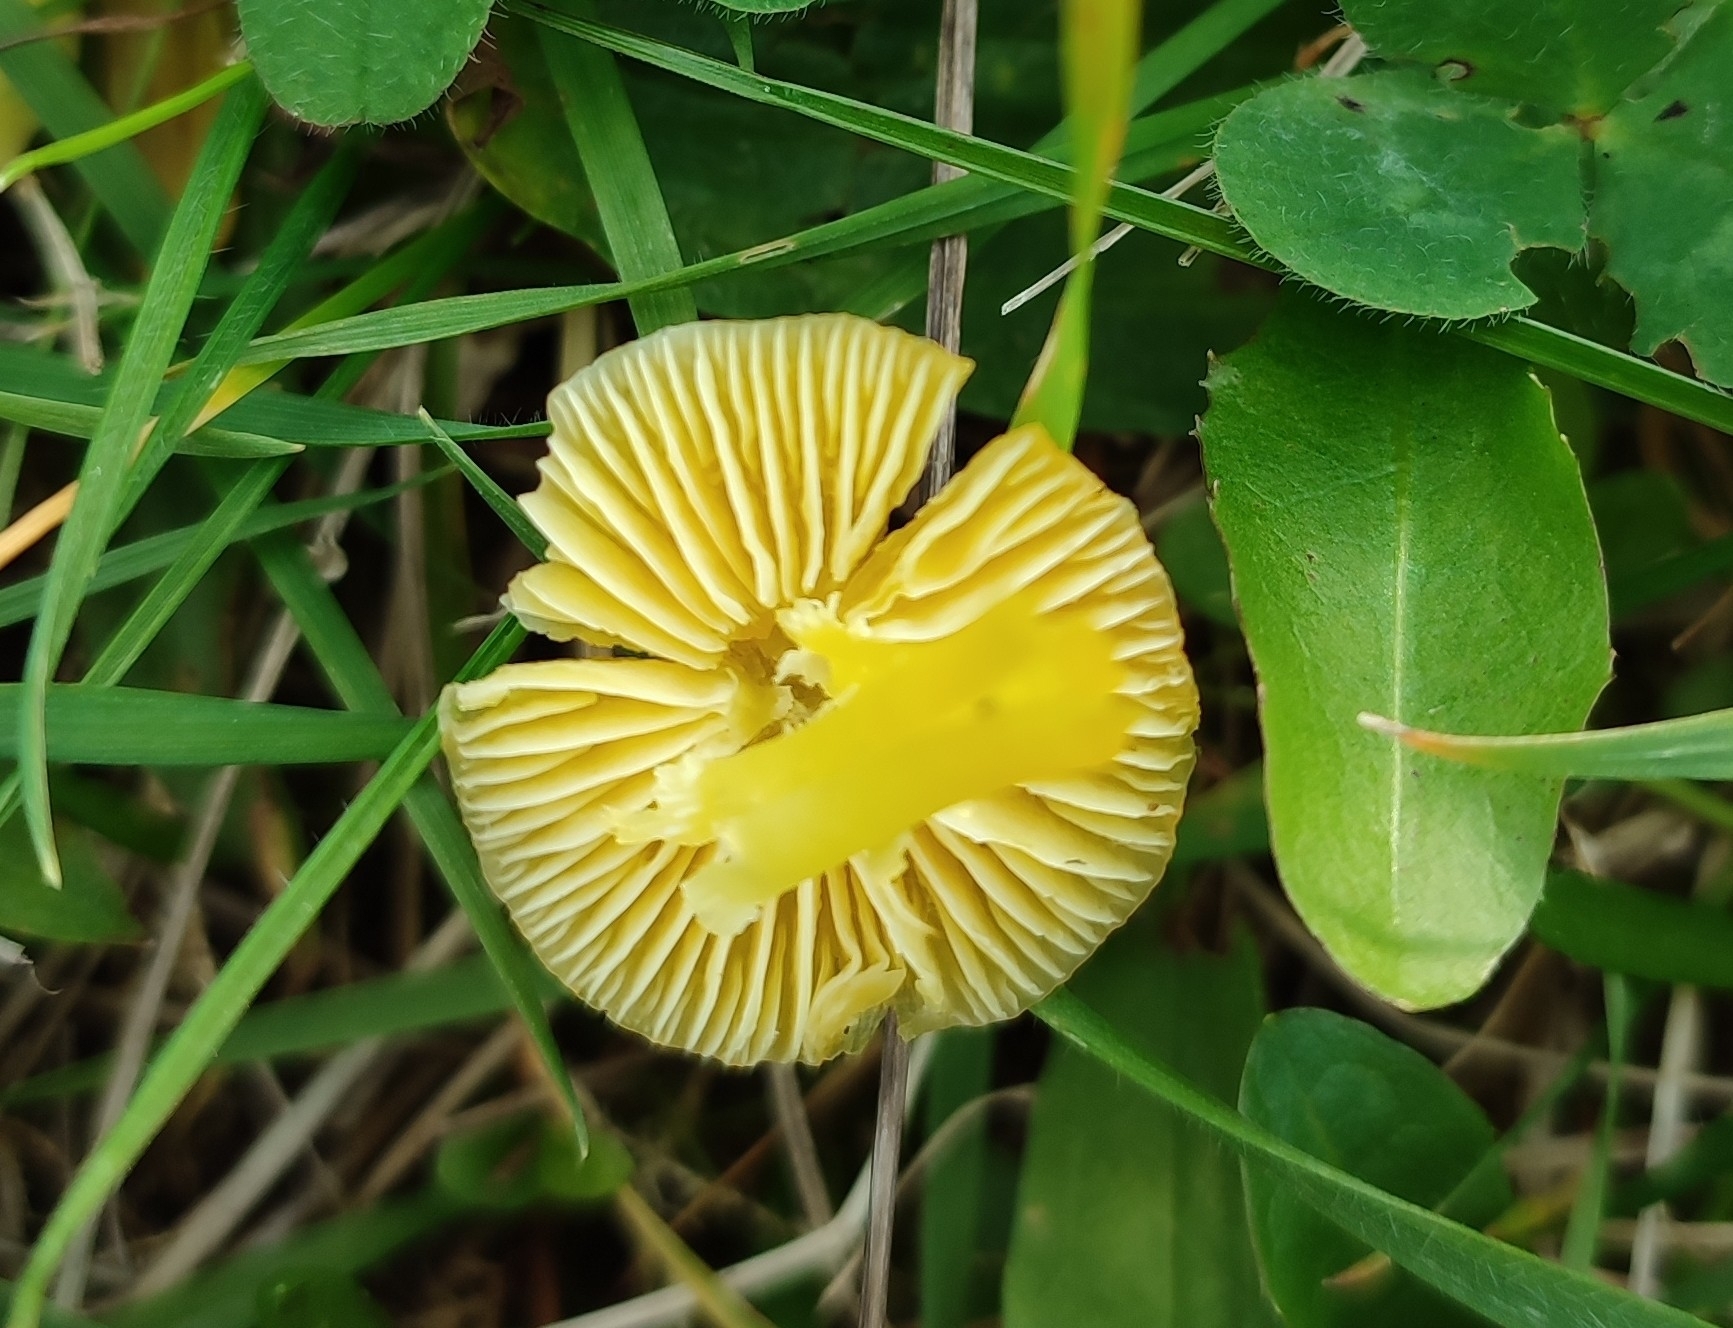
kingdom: Fungi
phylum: Basidiomycota
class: Agaricomycetes
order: Agaricales
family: Hygrophoraceae
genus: Hygrocybe
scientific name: Hygrocybe ceracea
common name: Butter waxcap
